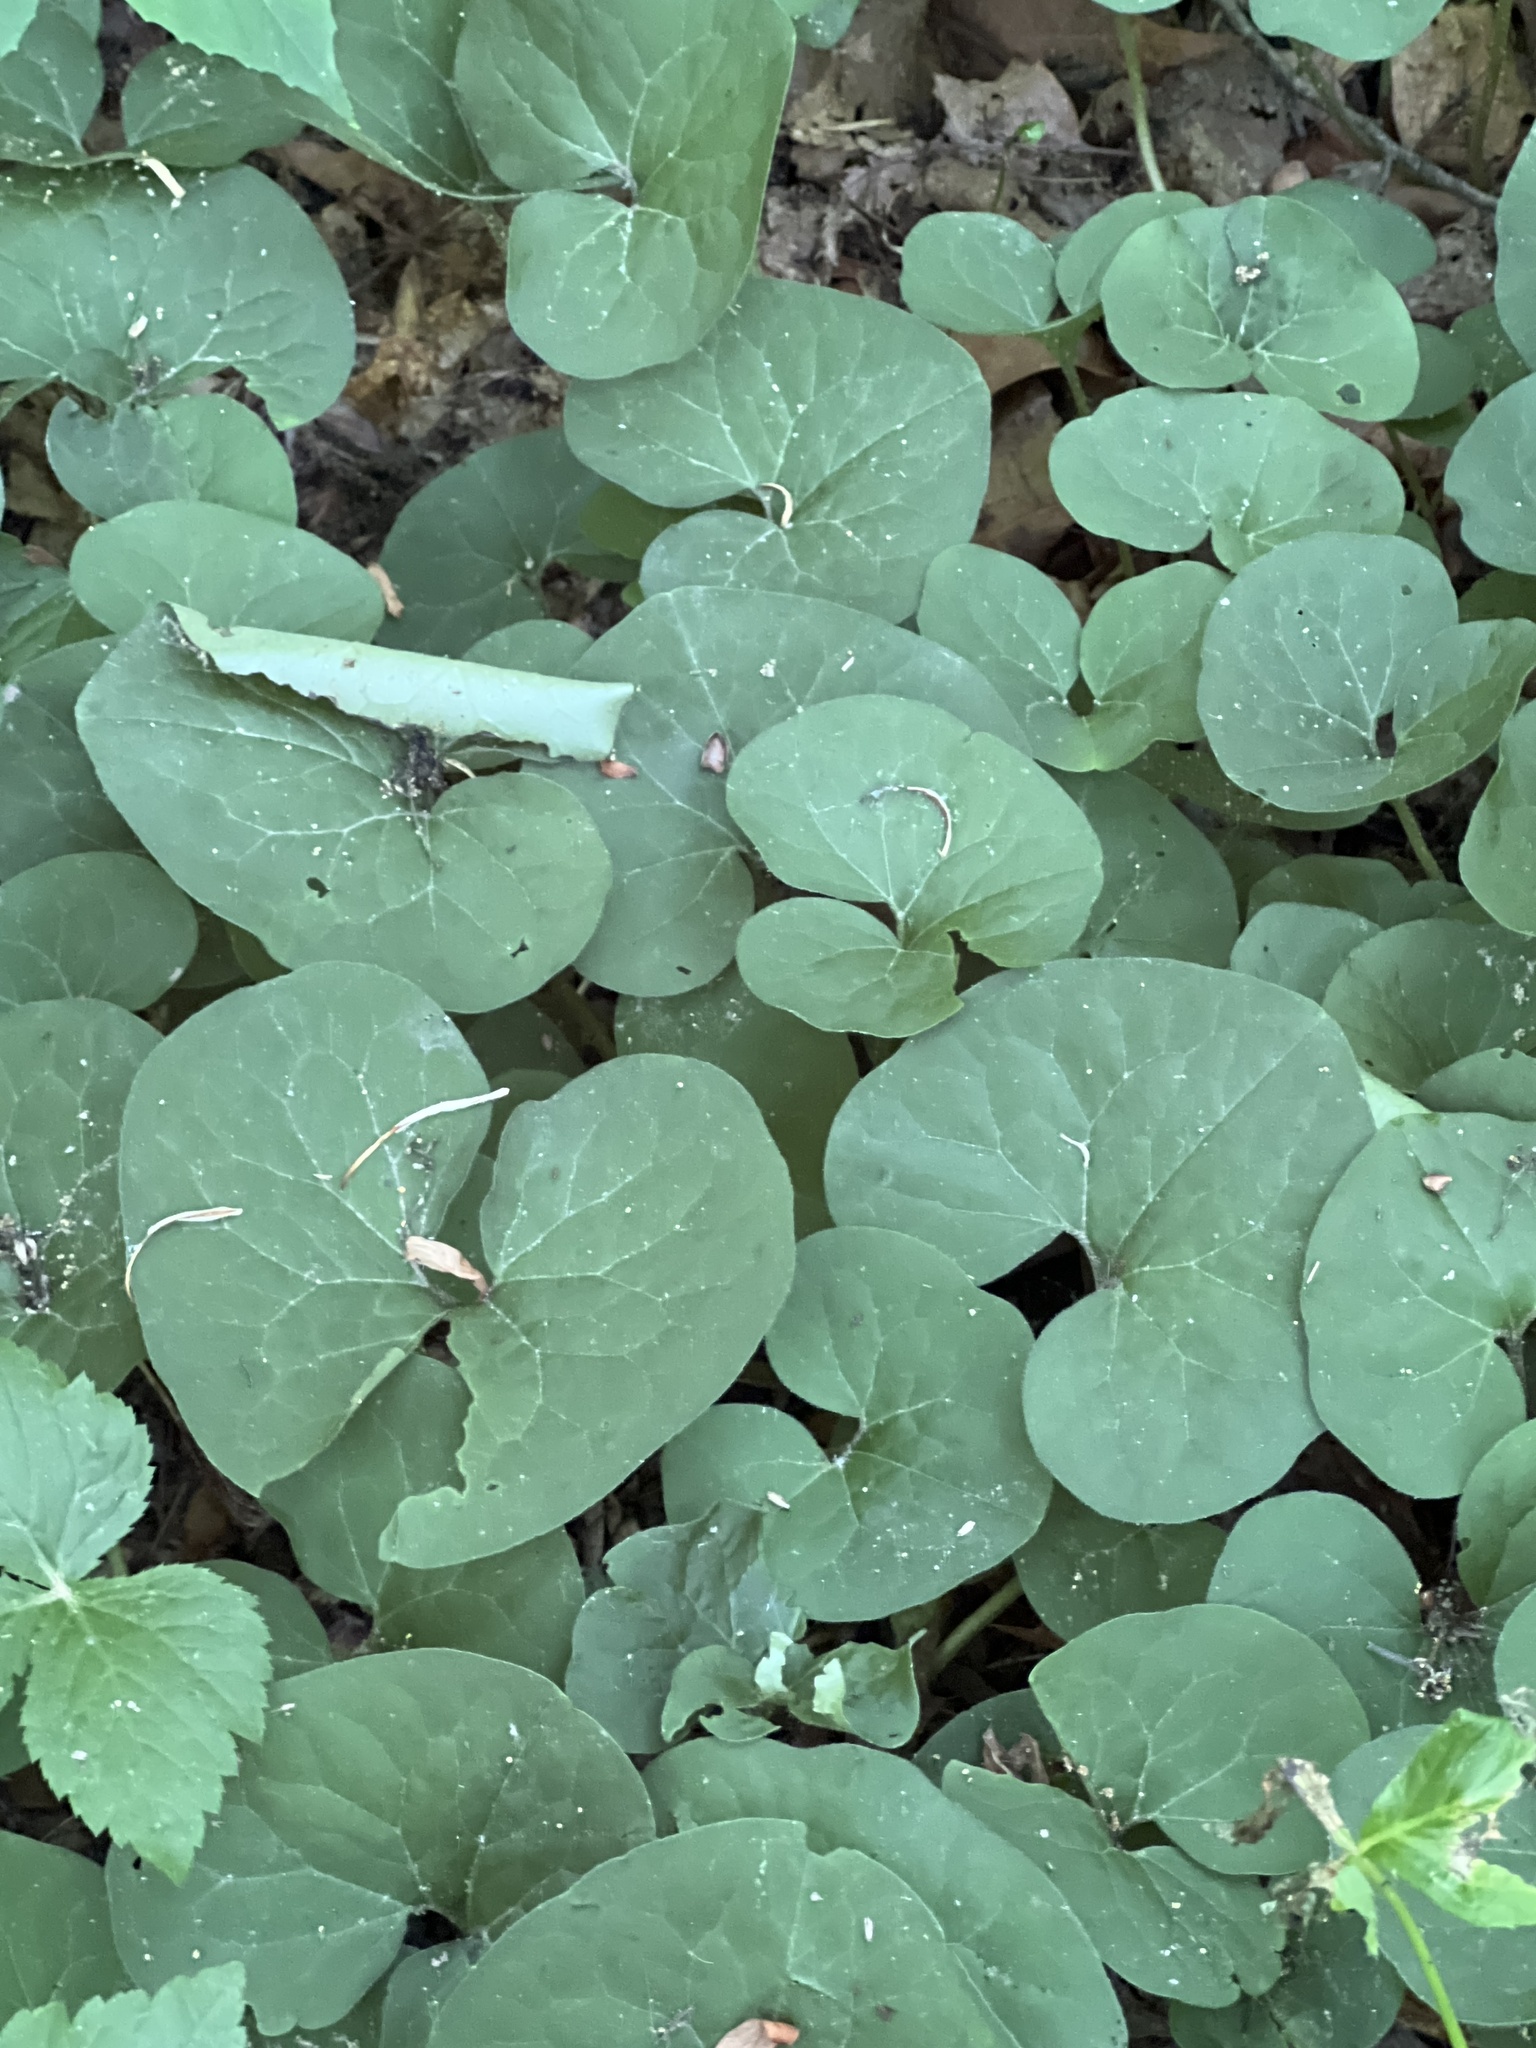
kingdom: Plantae
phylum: Tracheophyta
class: Magnoliopsida
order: Piperales
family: Aristolochiaceae
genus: Asarum
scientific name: Asarum canadense
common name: Wild ginger
